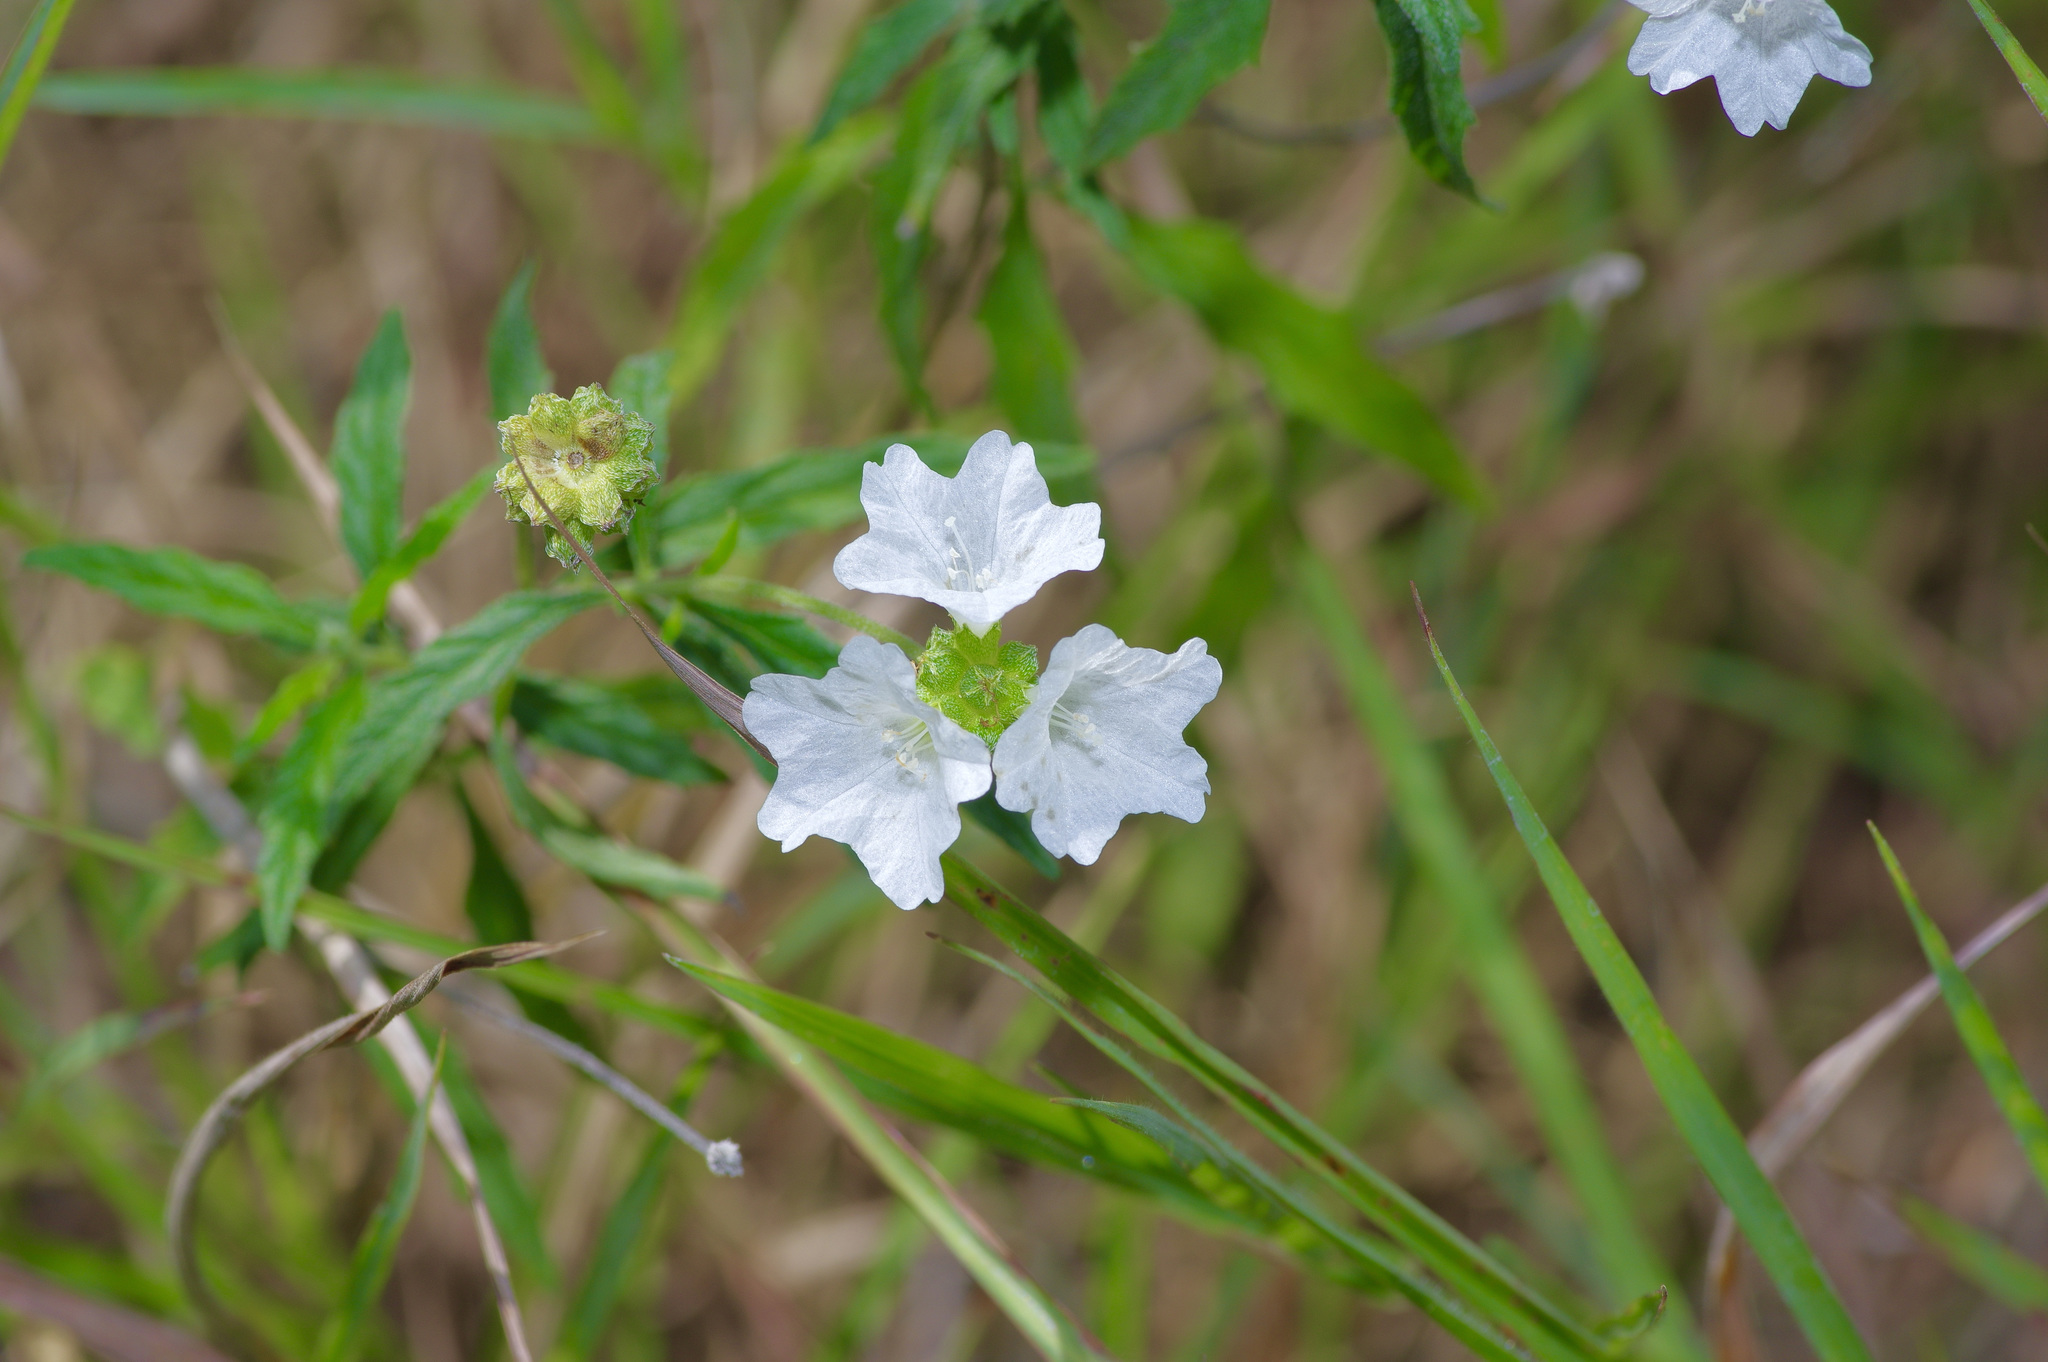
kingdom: Plantae
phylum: Tracheophyta
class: Magnoliopsida
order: Boraginales
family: Cordiaceae
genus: Varronia
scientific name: Varronia podocephala
